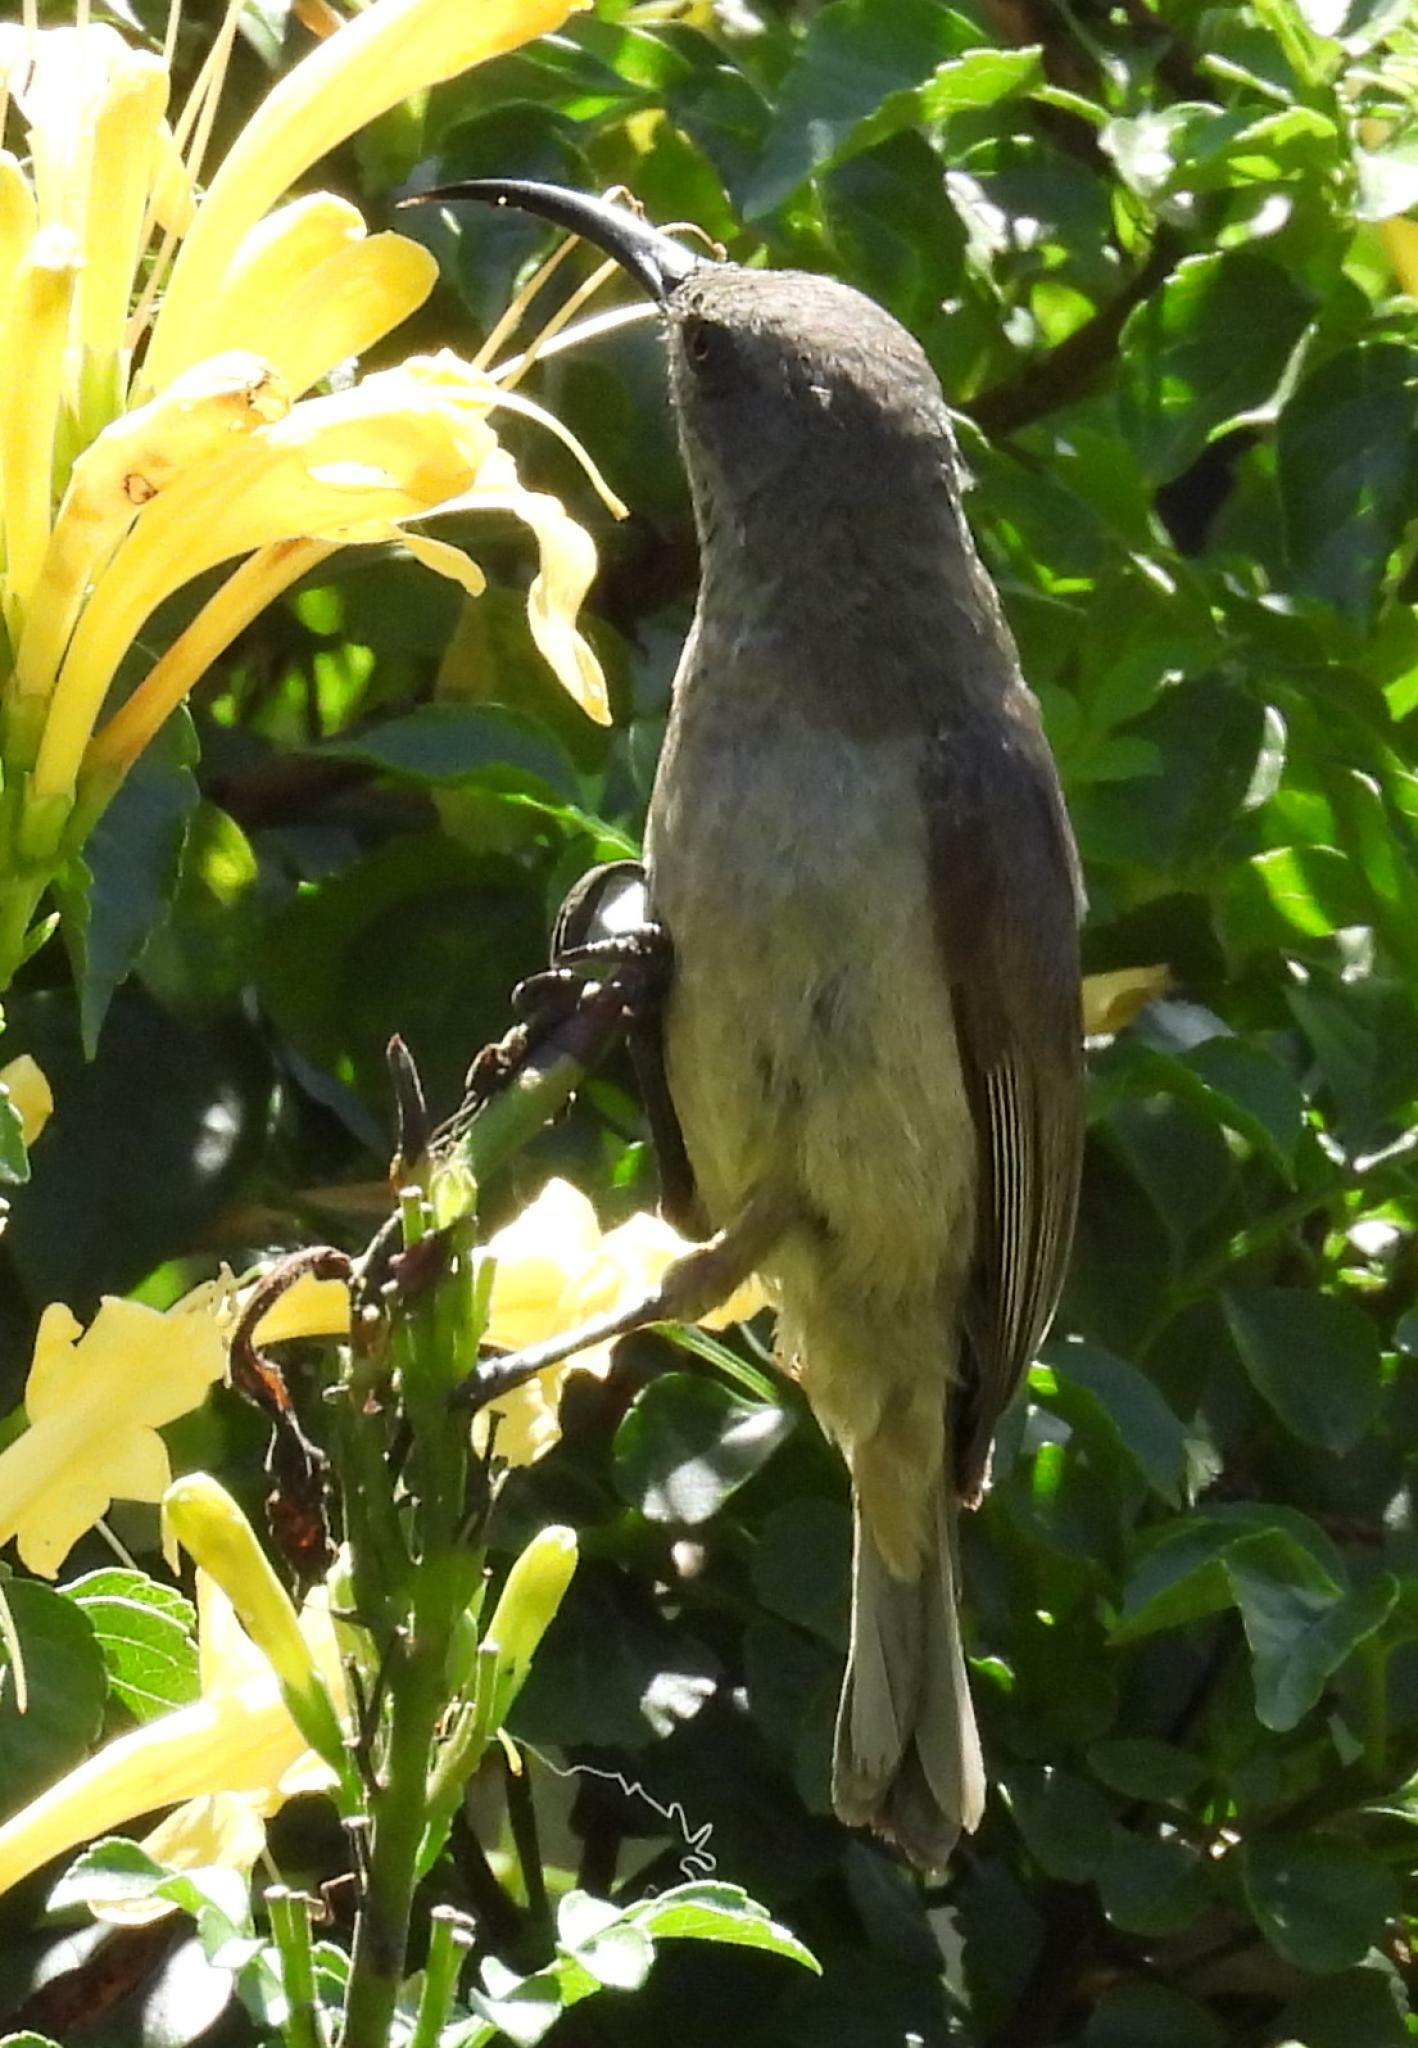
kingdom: Animalia
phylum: Chordata
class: Aves
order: Passeriformes
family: Nectariniidae
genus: Cinnyris
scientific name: Cinnyris afer
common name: Greater double-collared sunbird
